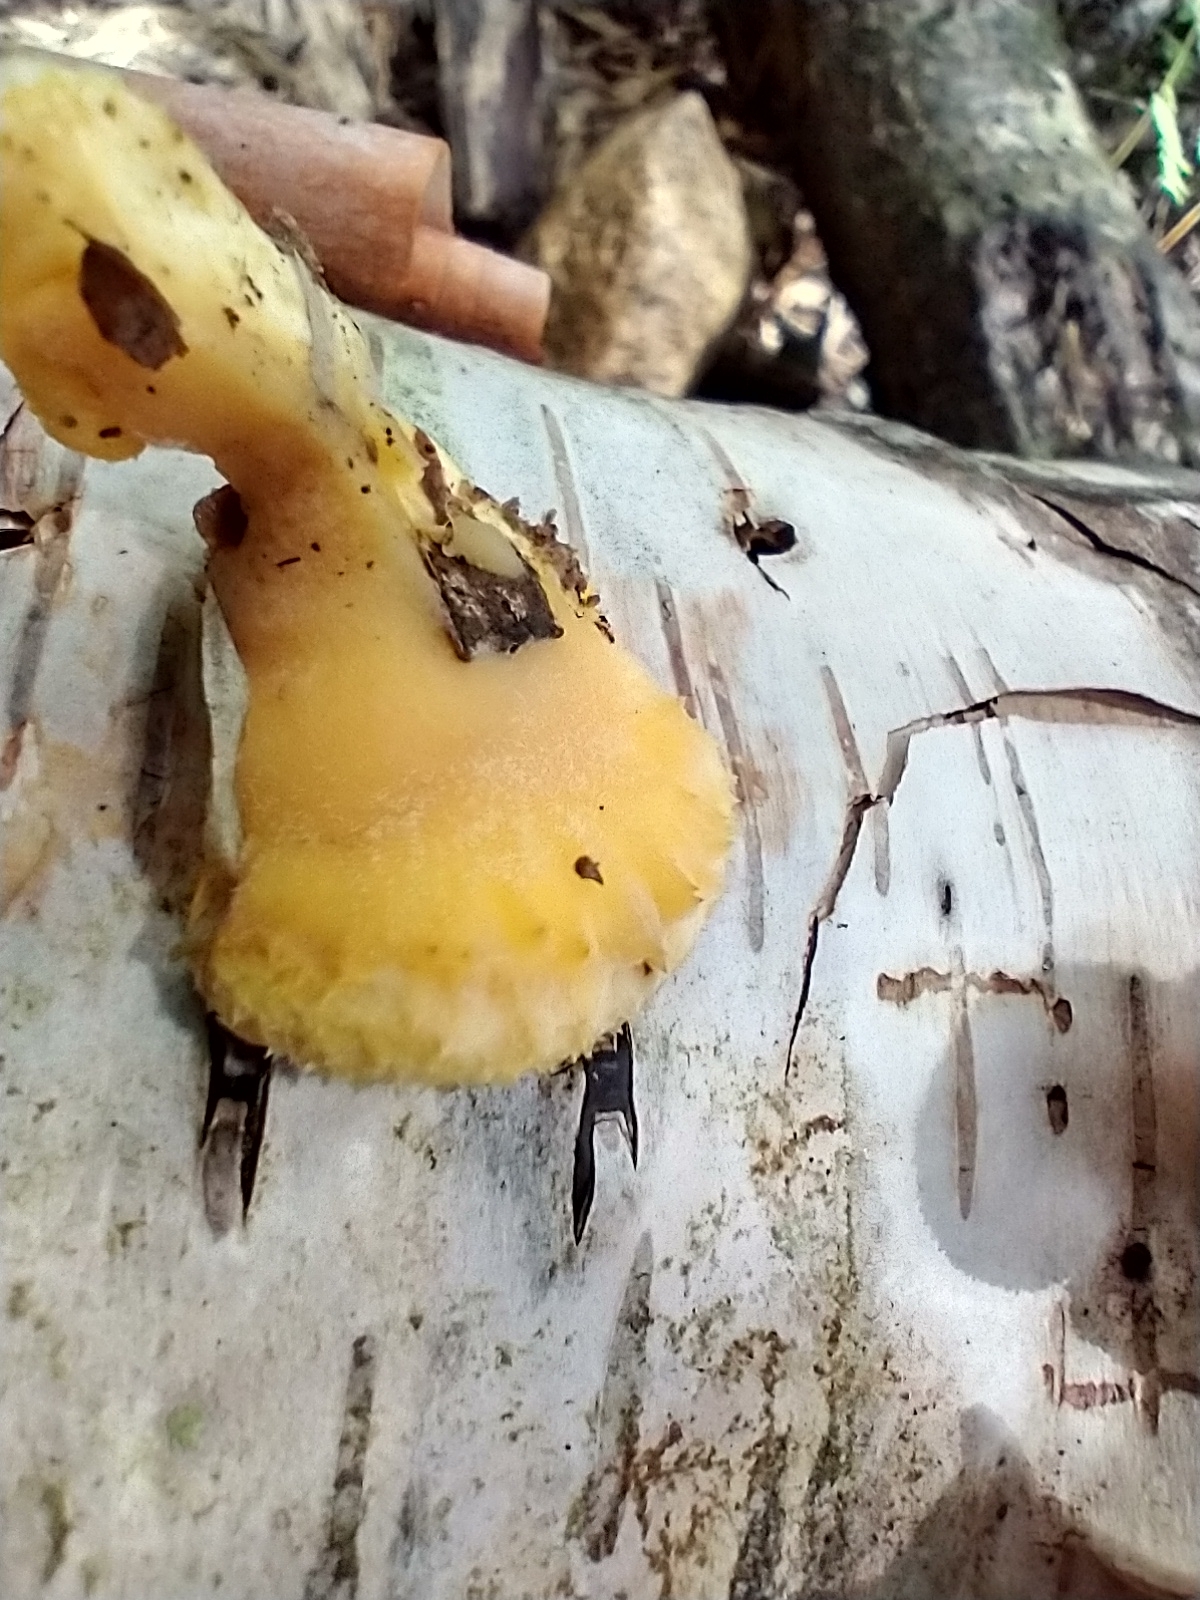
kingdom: Fungi
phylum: Basidiomycota
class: Agaricomycetes
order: Agaricales
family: Phyllotopsidaceae
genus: Phyllotopsis
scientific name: Phyllotopsis nidulans
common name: Orange mock oyster
